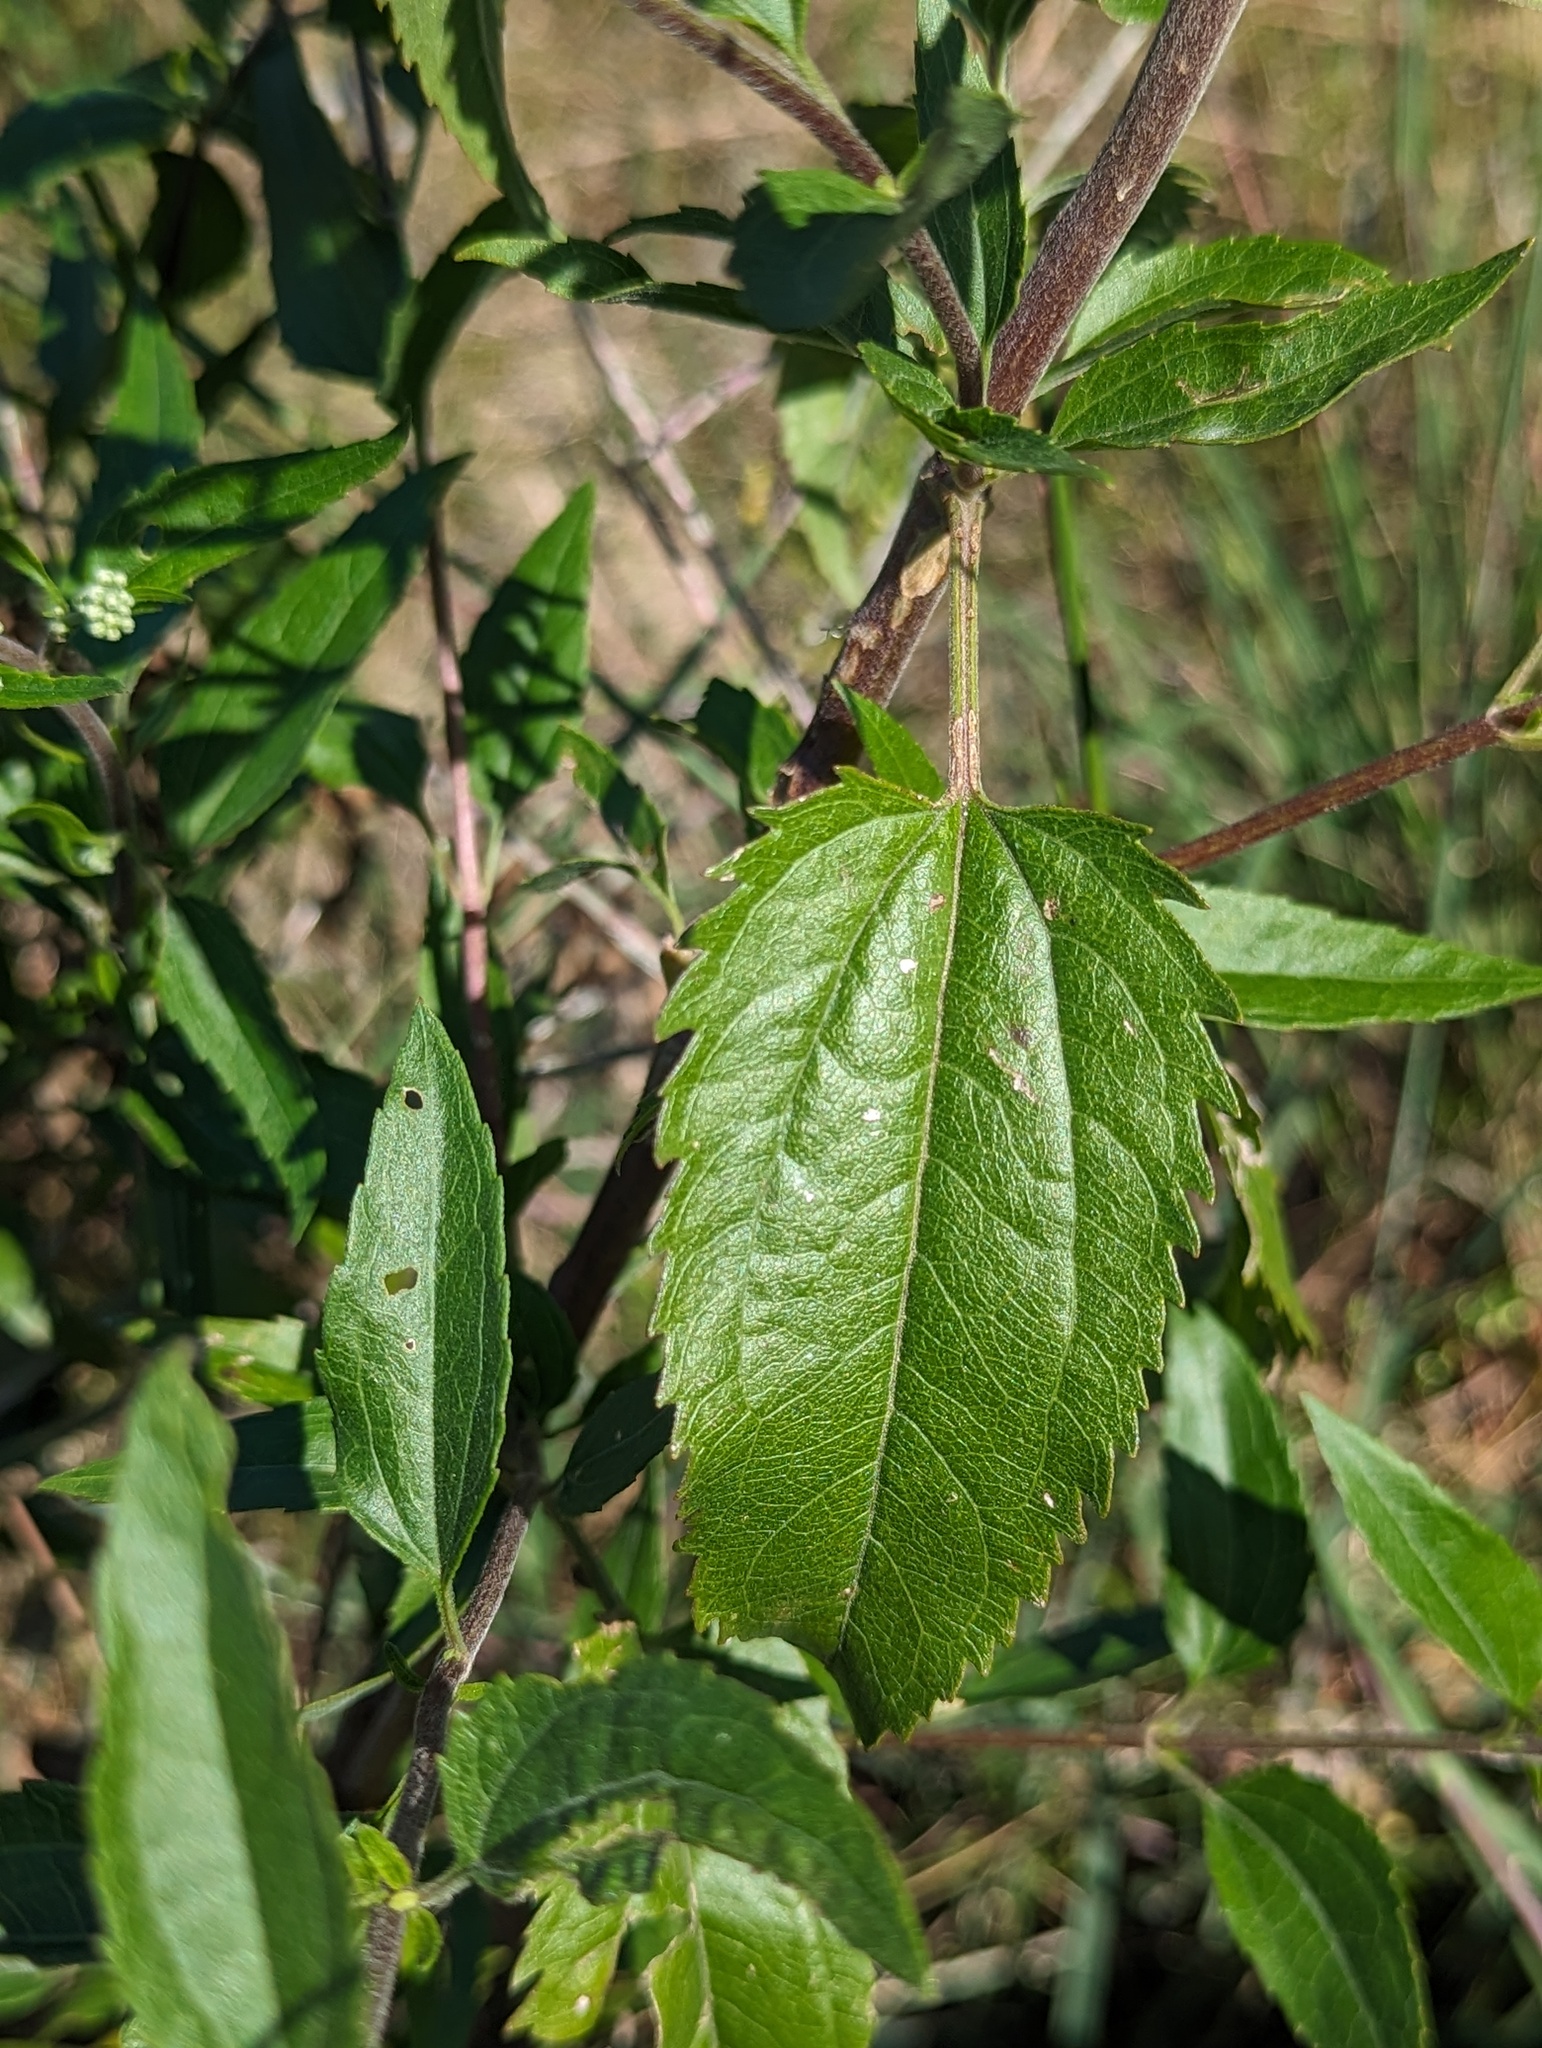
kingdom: Plantae
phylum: Tracheophyta
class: Magnoliopsida
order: Asterales
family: Asteraceae
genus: Eupatorium
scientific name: Eupatorium serotinum
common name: Late boneset
